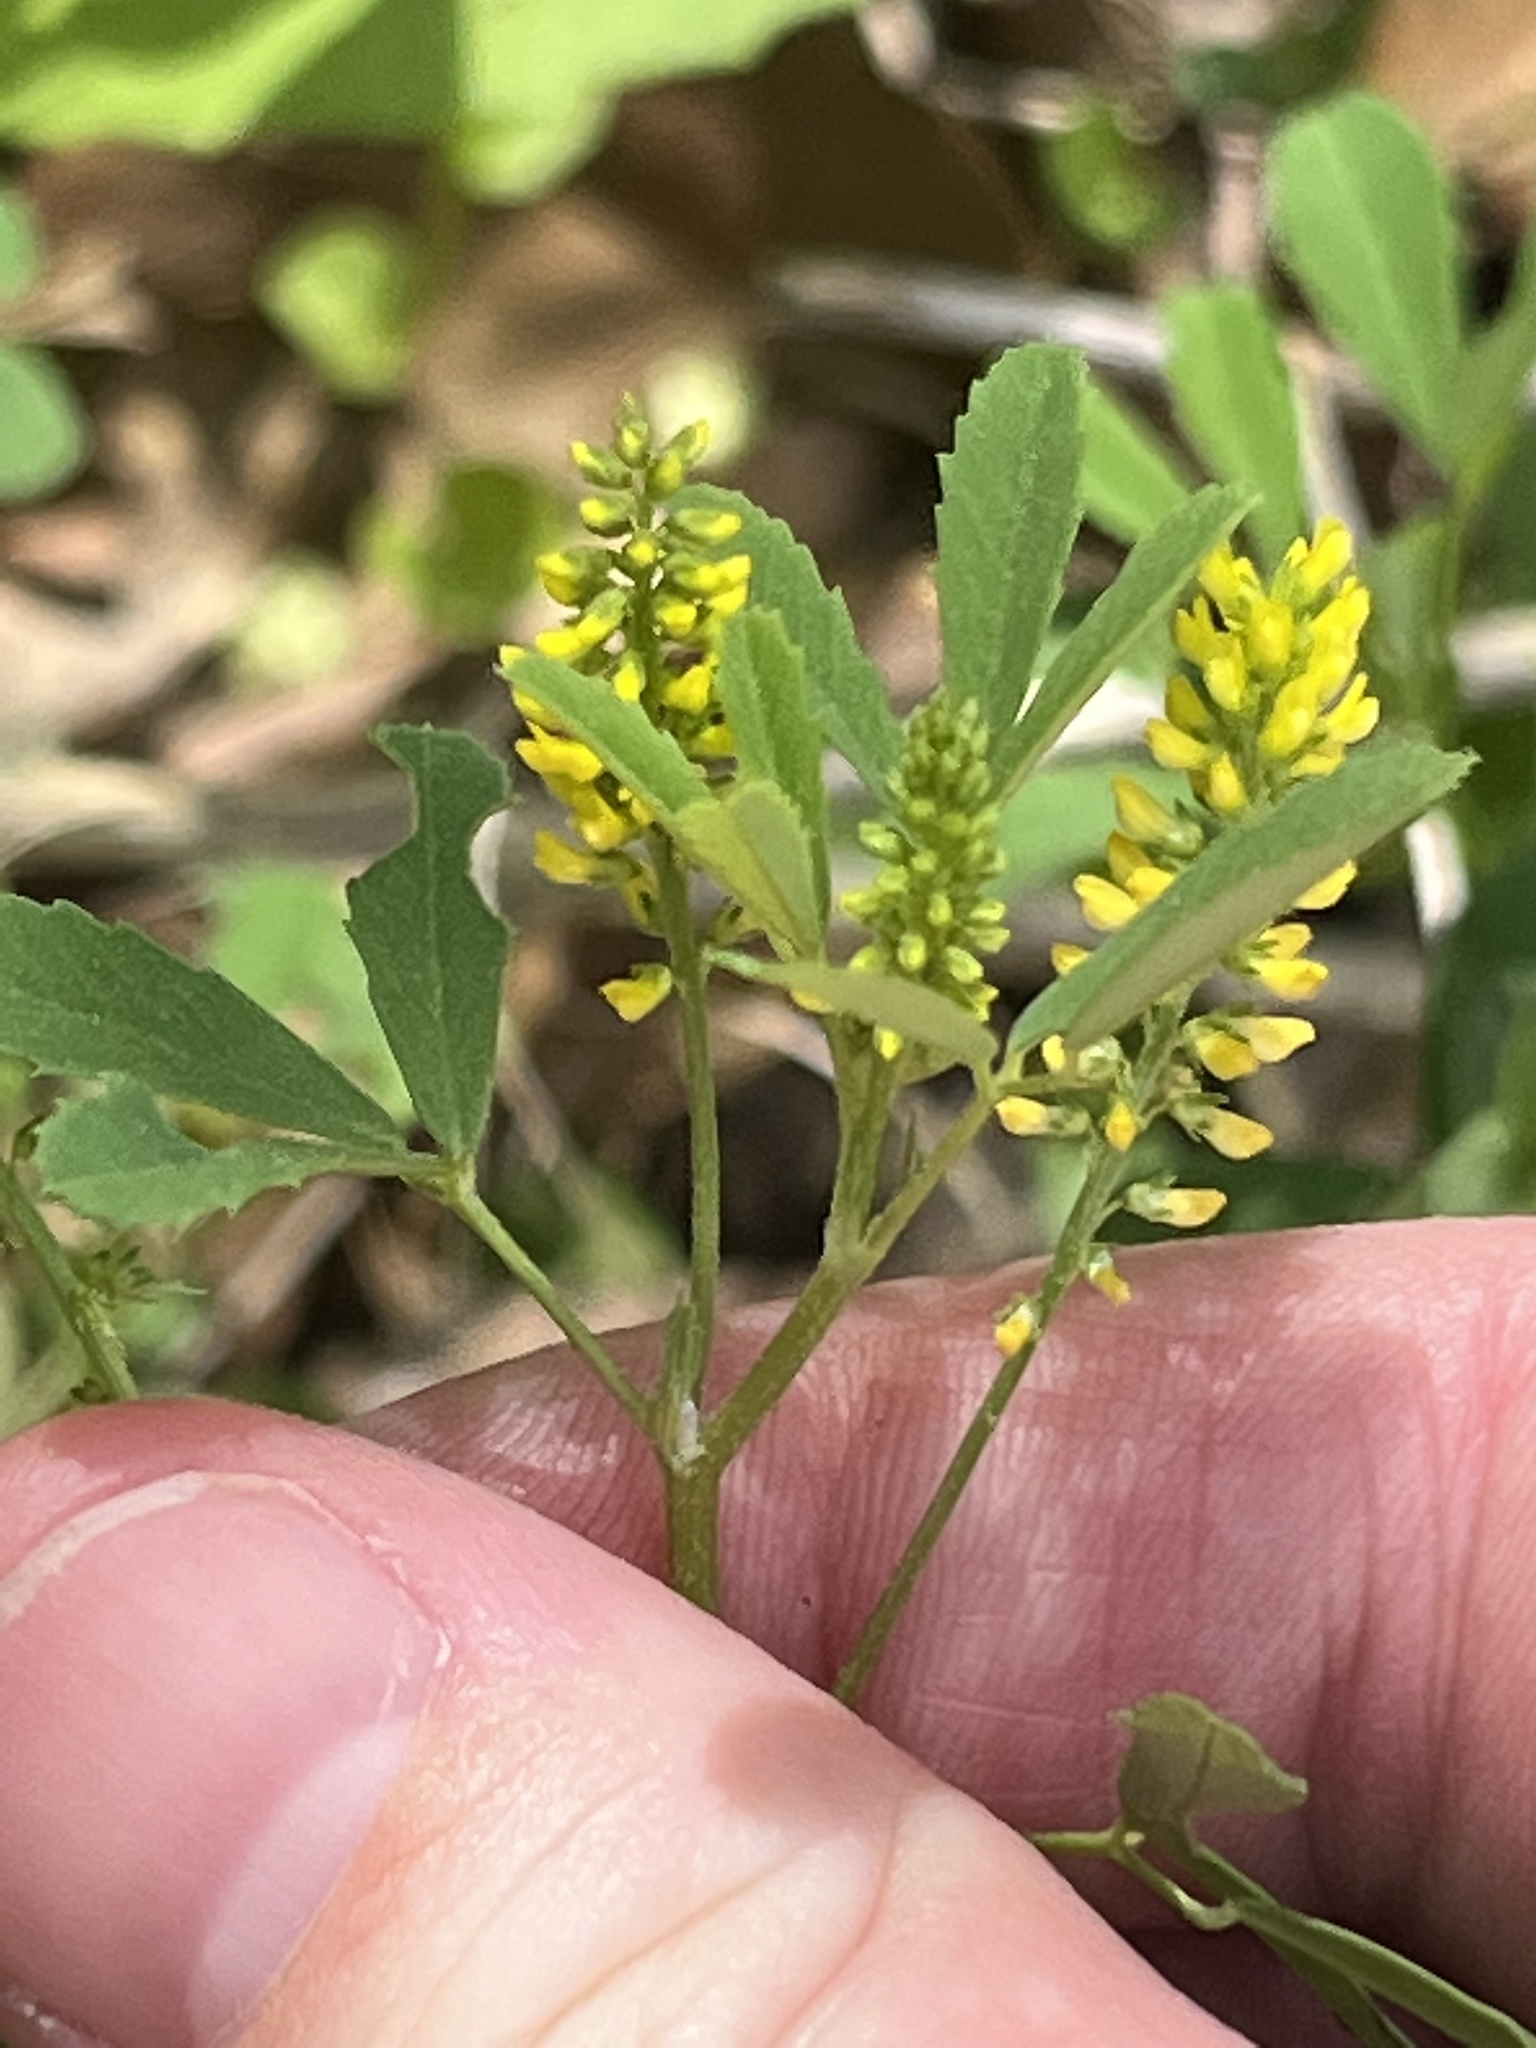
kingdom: Plantae
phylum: Tracheophyta
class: Magnoliopsida
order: Fabales
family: Fabaceae
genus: Melilotus
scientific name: Melilotus indicus
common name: Small melilot
